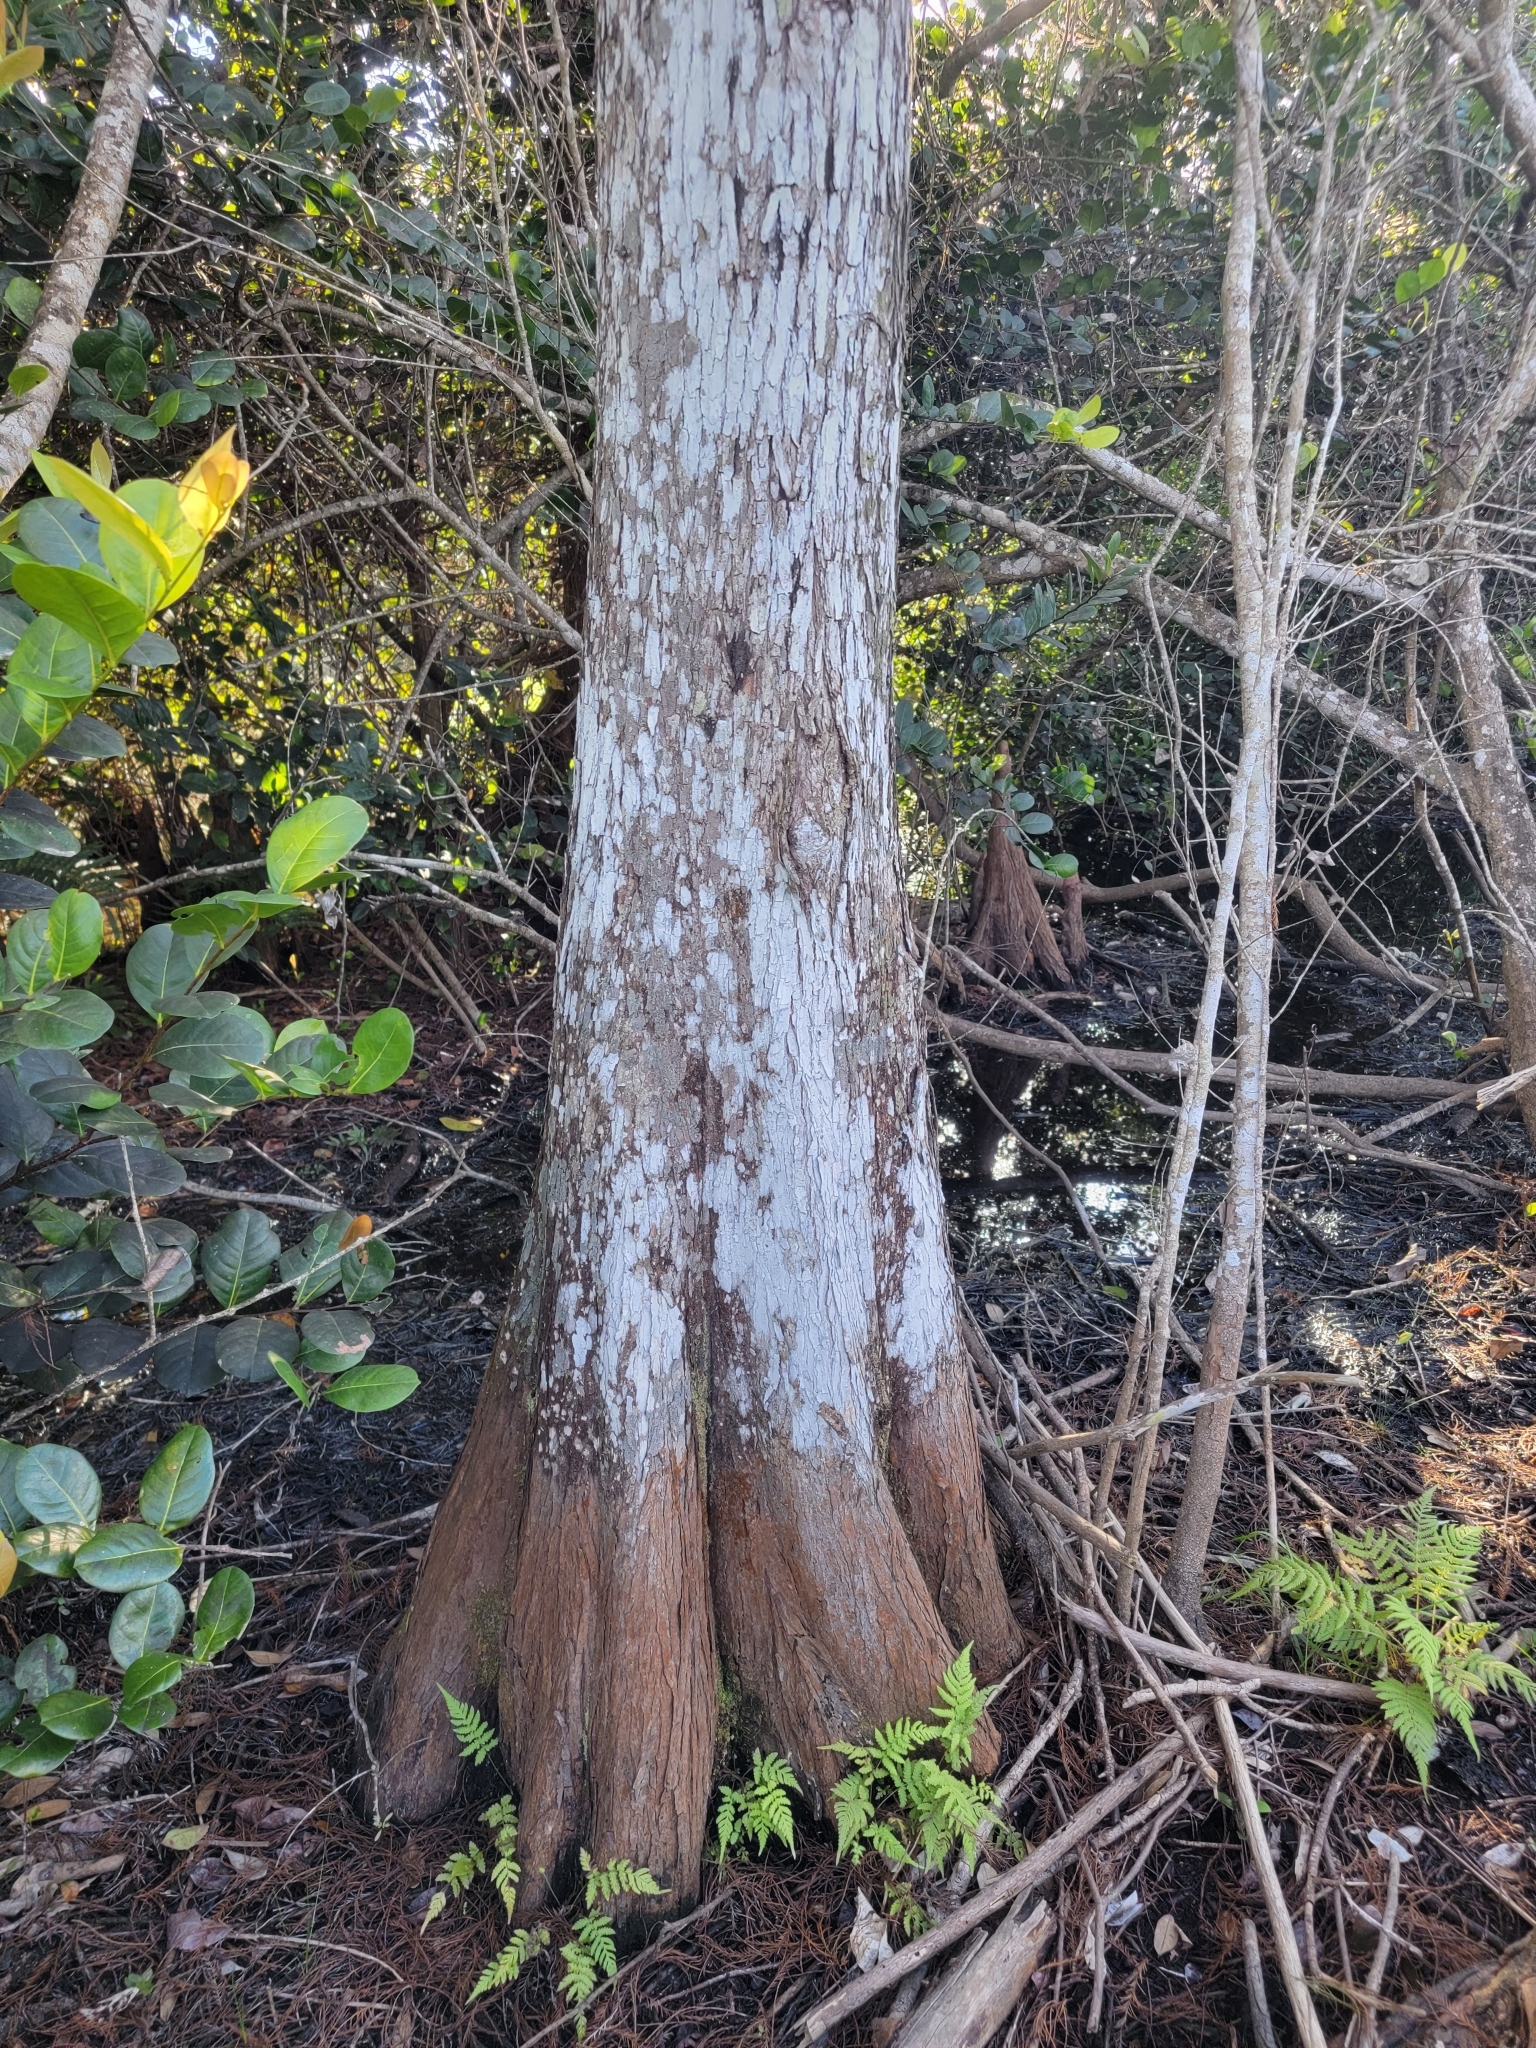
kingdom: Plantae
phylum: Tracheophyta
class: Pinopsida
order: Pinales
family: Cupressaceae
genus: Taxodium
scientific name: Taxodium distichum
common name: Bald cypress
